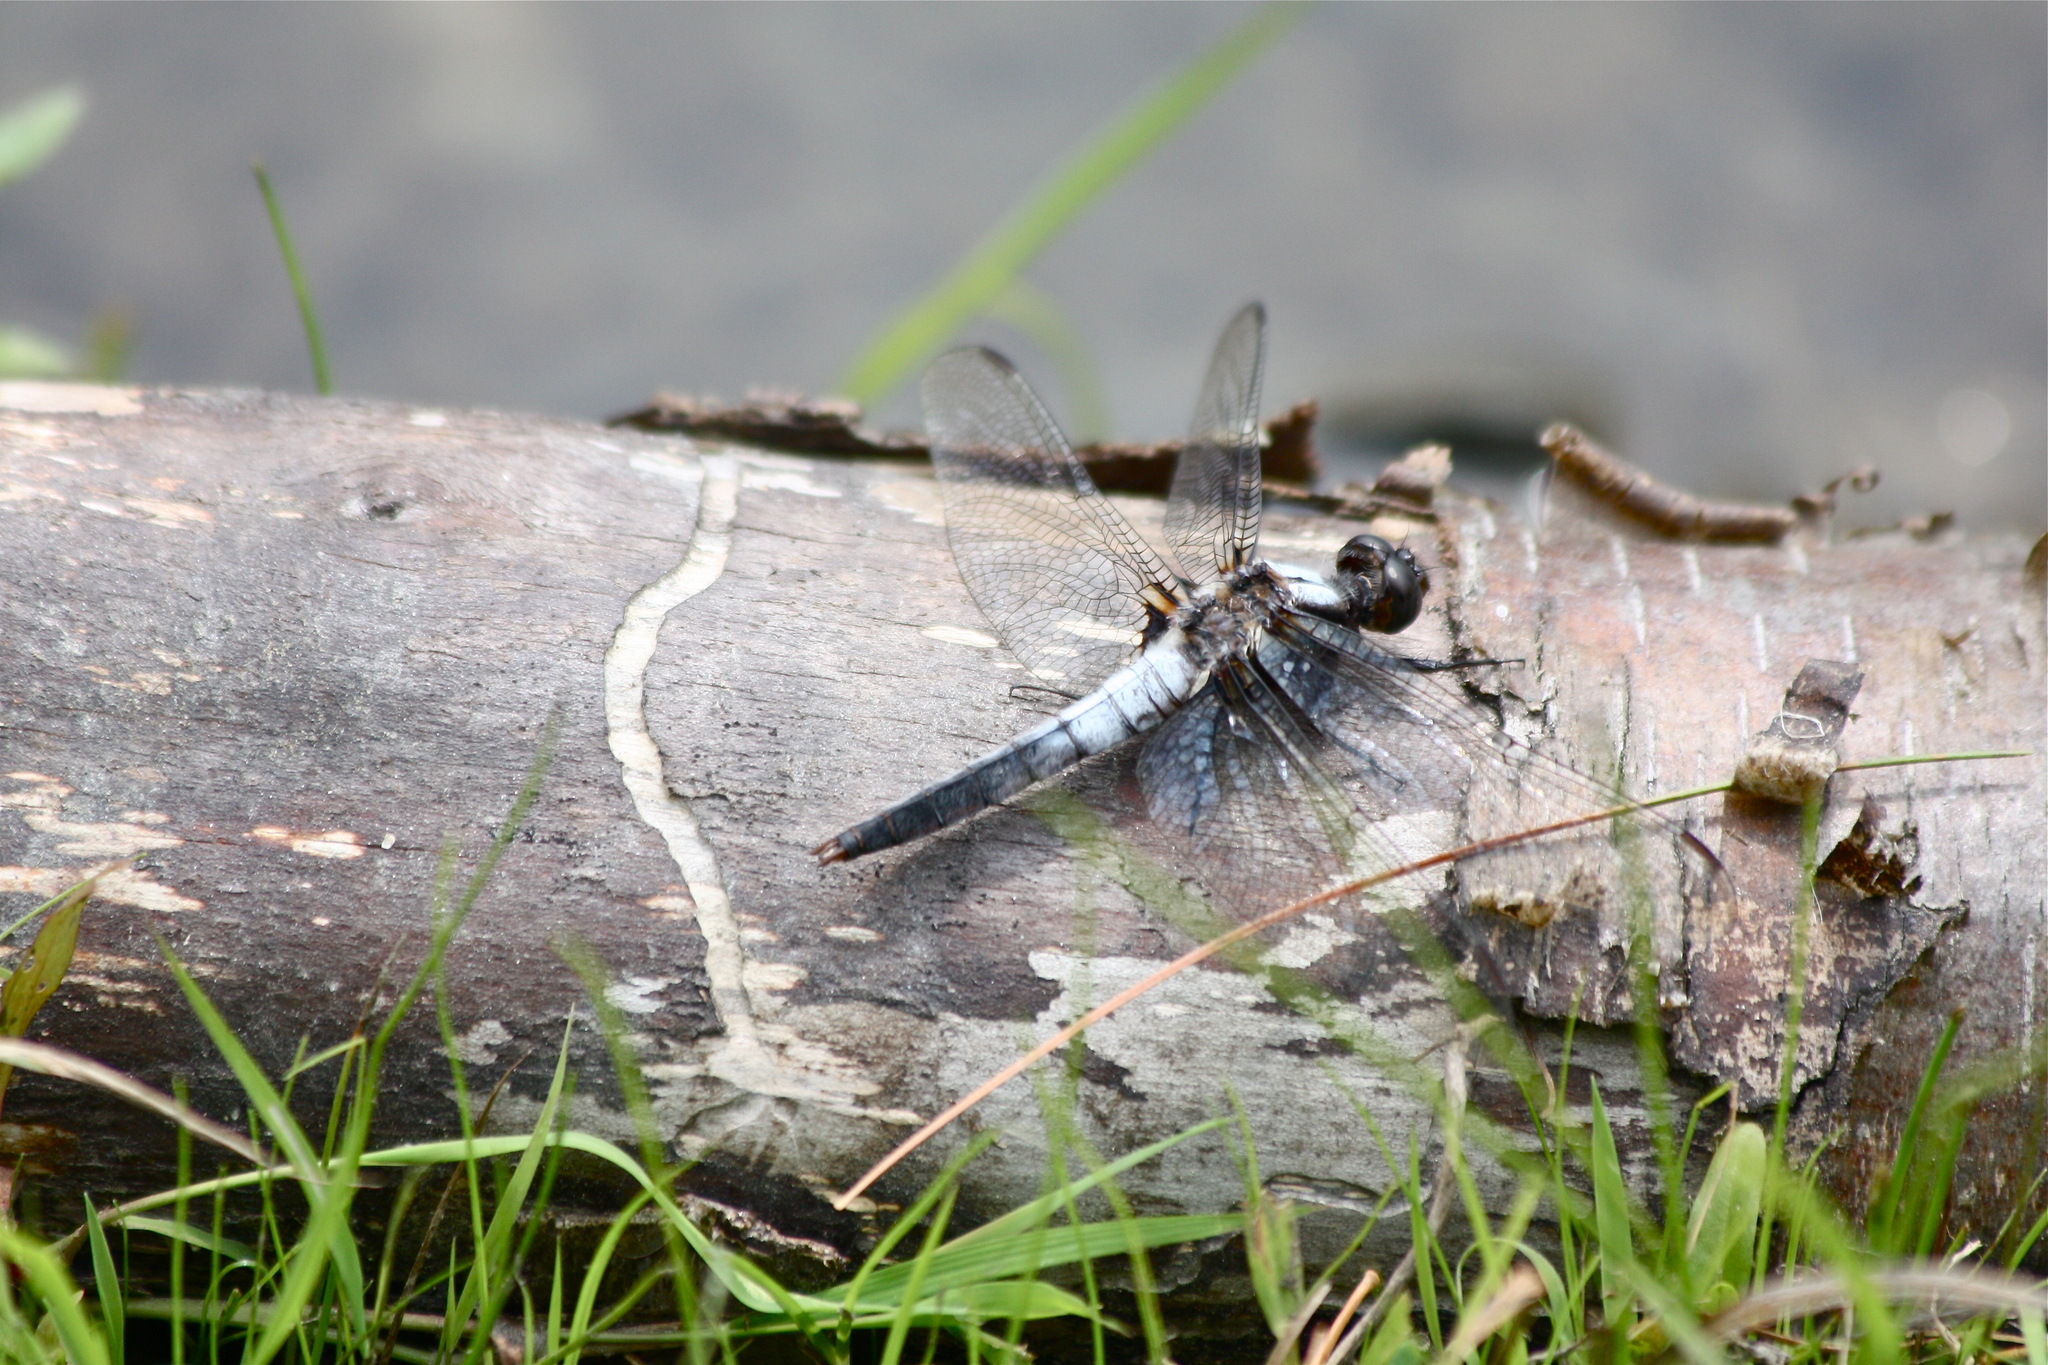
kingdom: Animalia
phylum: Arthropoda
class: Insecta
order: Odonata
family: Libellulidae
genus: Ladona
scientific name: Ladona julia
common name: Chalk-fronted corporal
